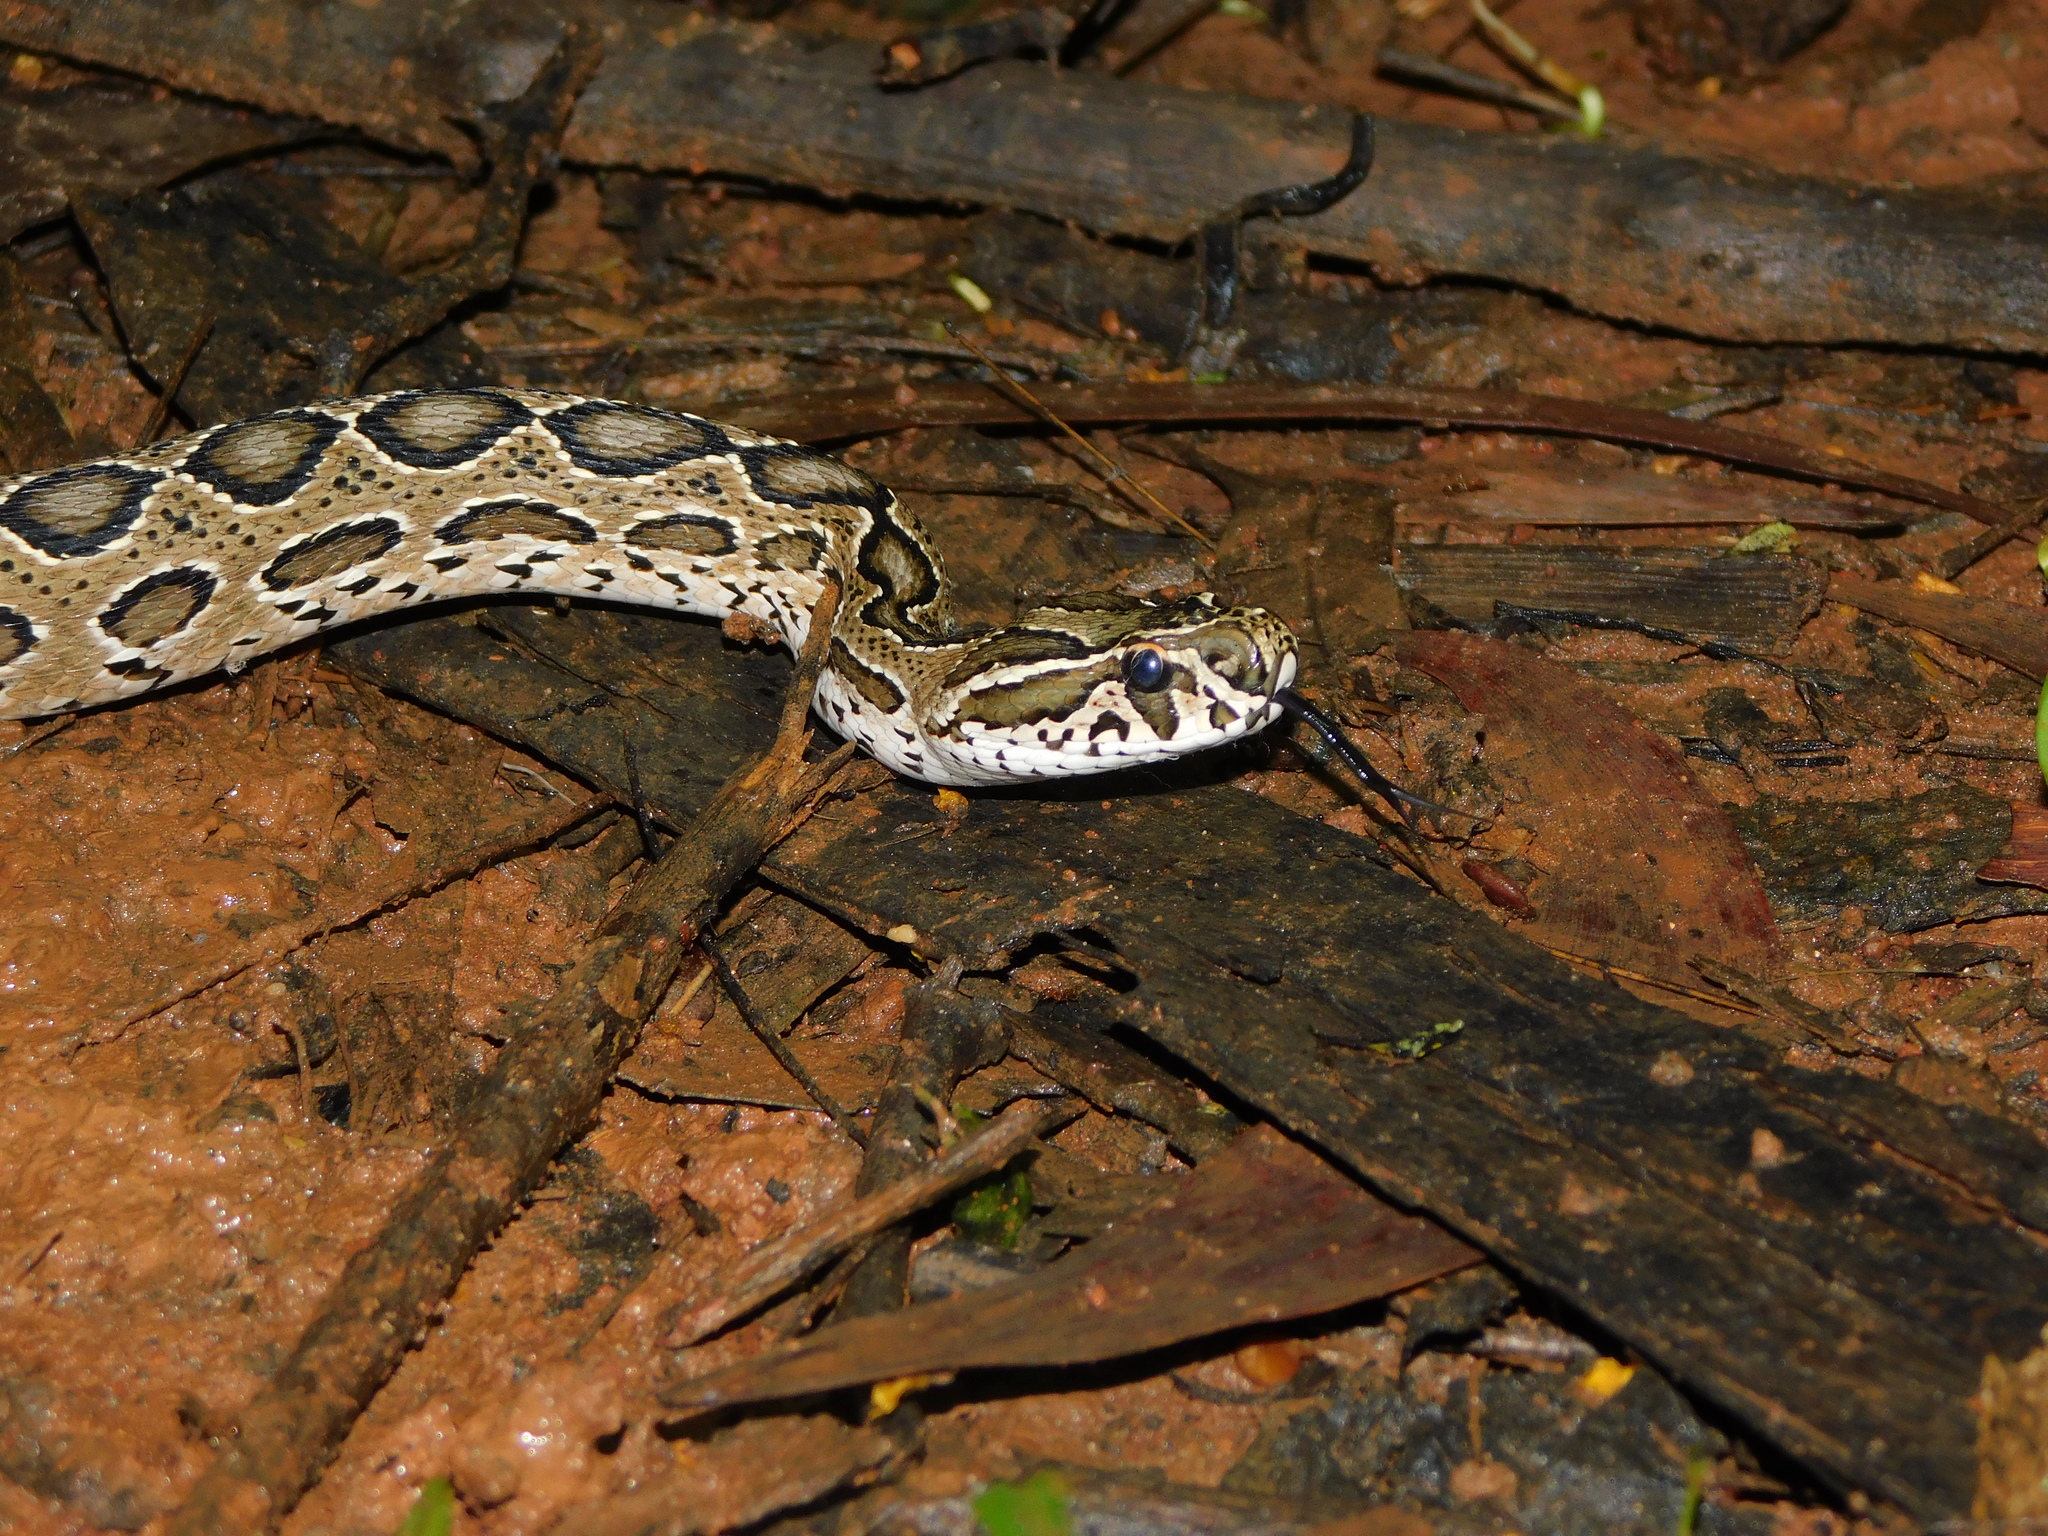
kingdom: Animalia
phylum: Chordata
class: Squamata
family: Viperidae
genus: Daboia
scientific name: Daboia russelii
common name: Western russel’s viper
